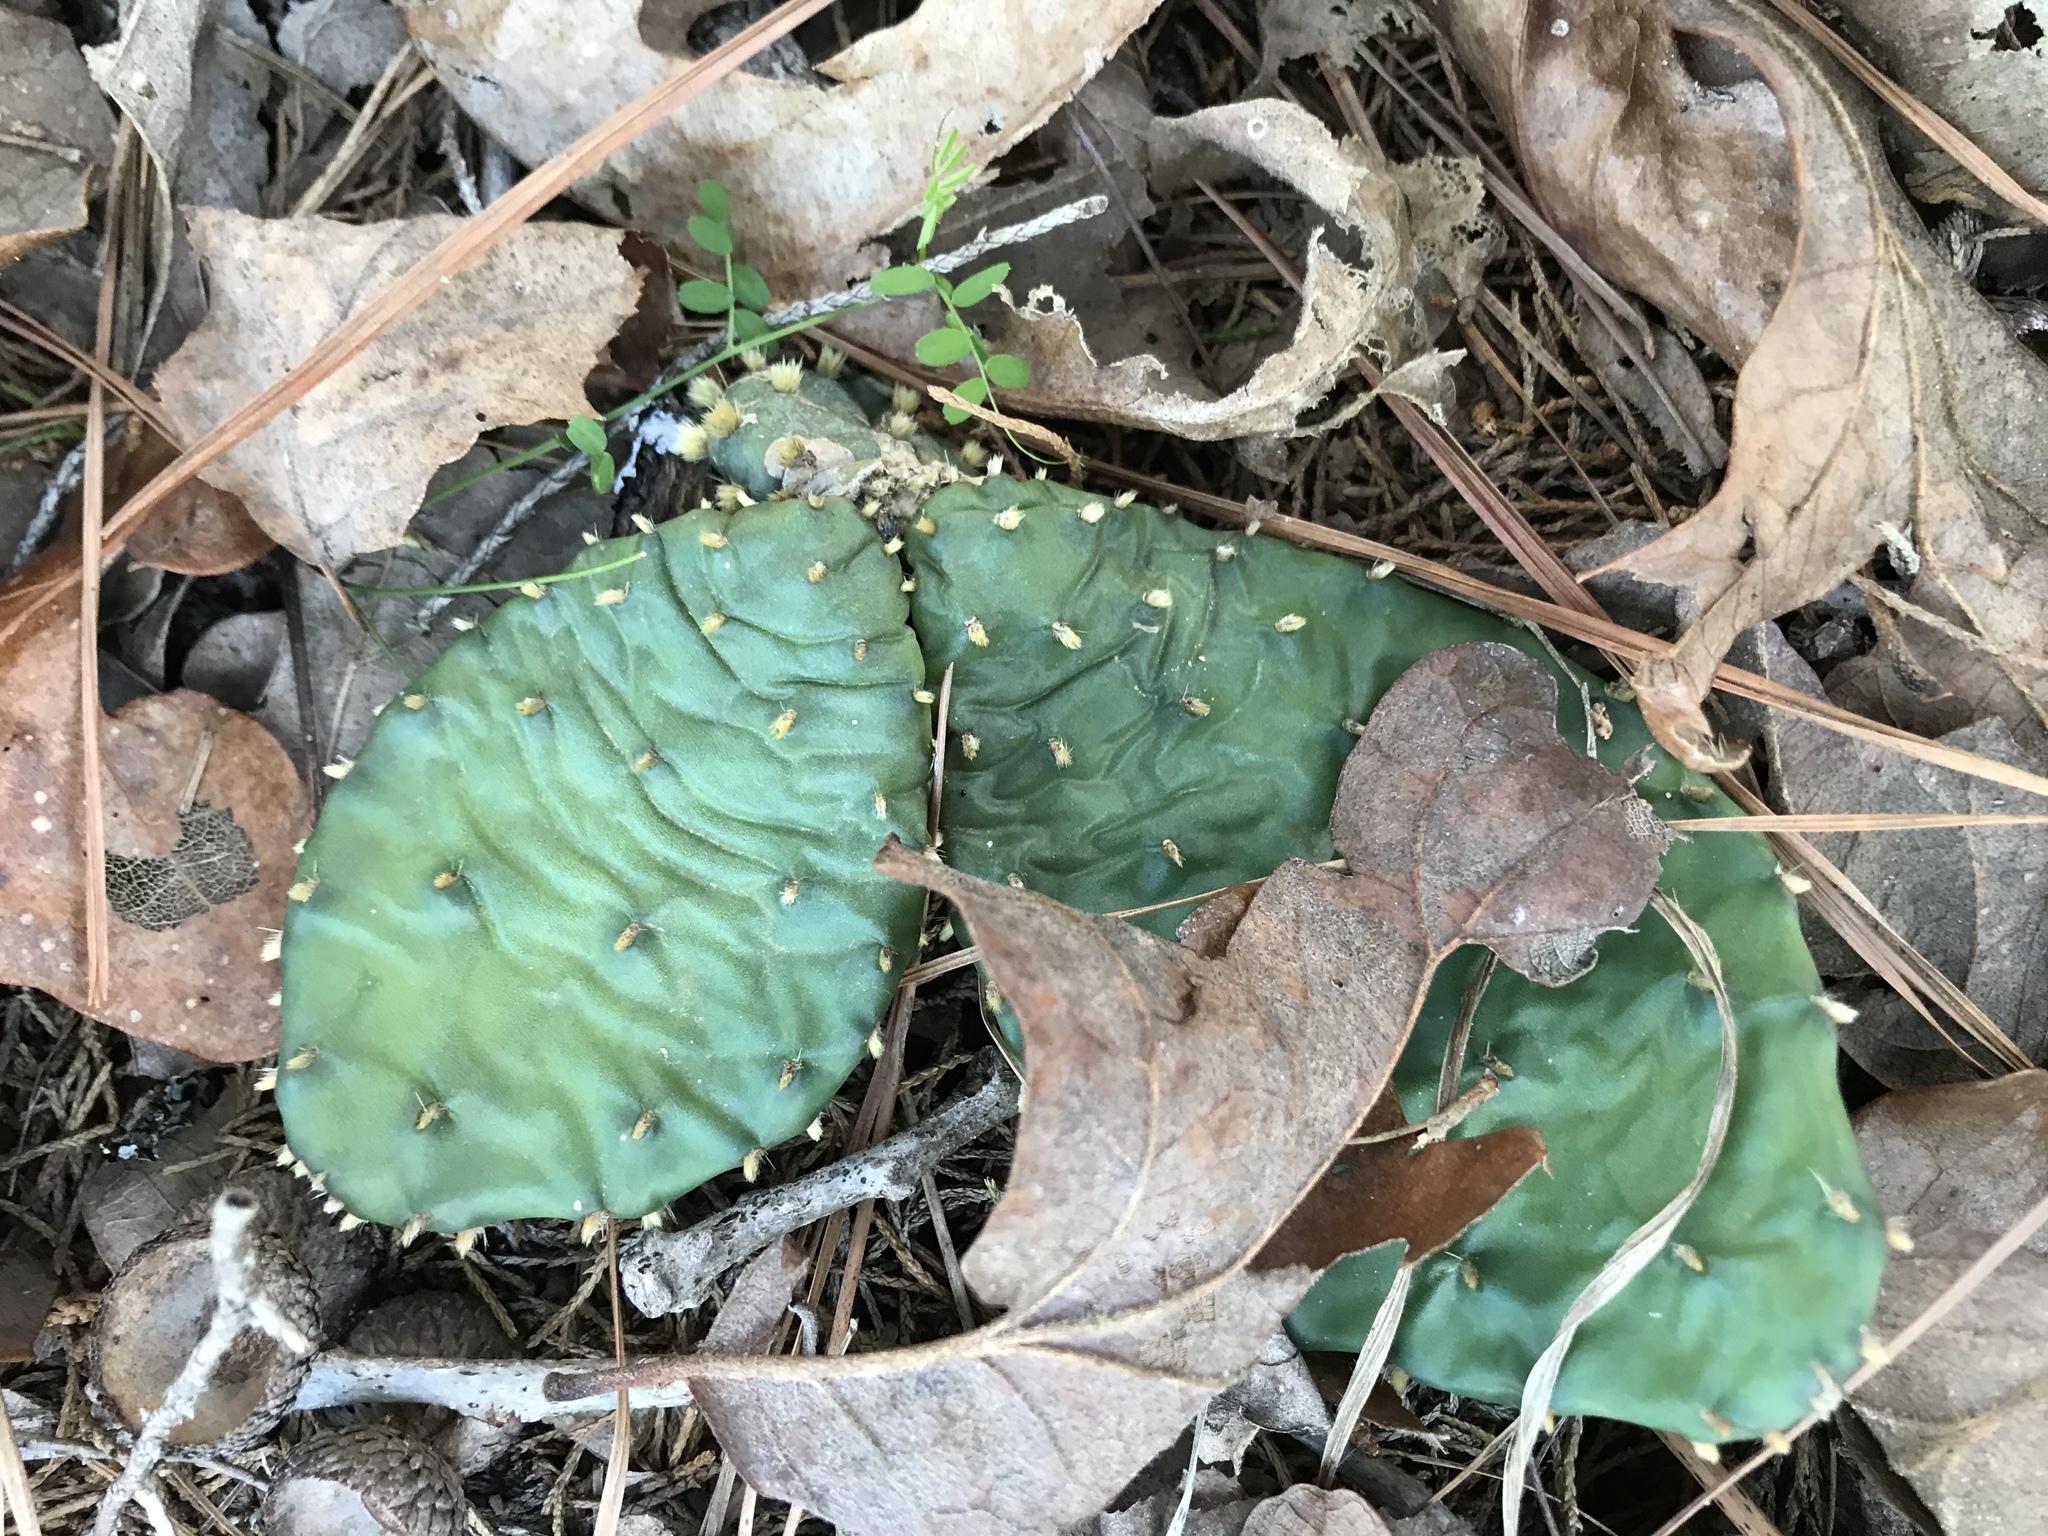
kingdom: Plantae
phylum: Tracheophyta
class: Magnoliopsida
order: Caryophyllales
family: Cactaceae
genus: Opuntia
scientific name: Opuntia macrorhiza
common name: Grassland pricklypear
